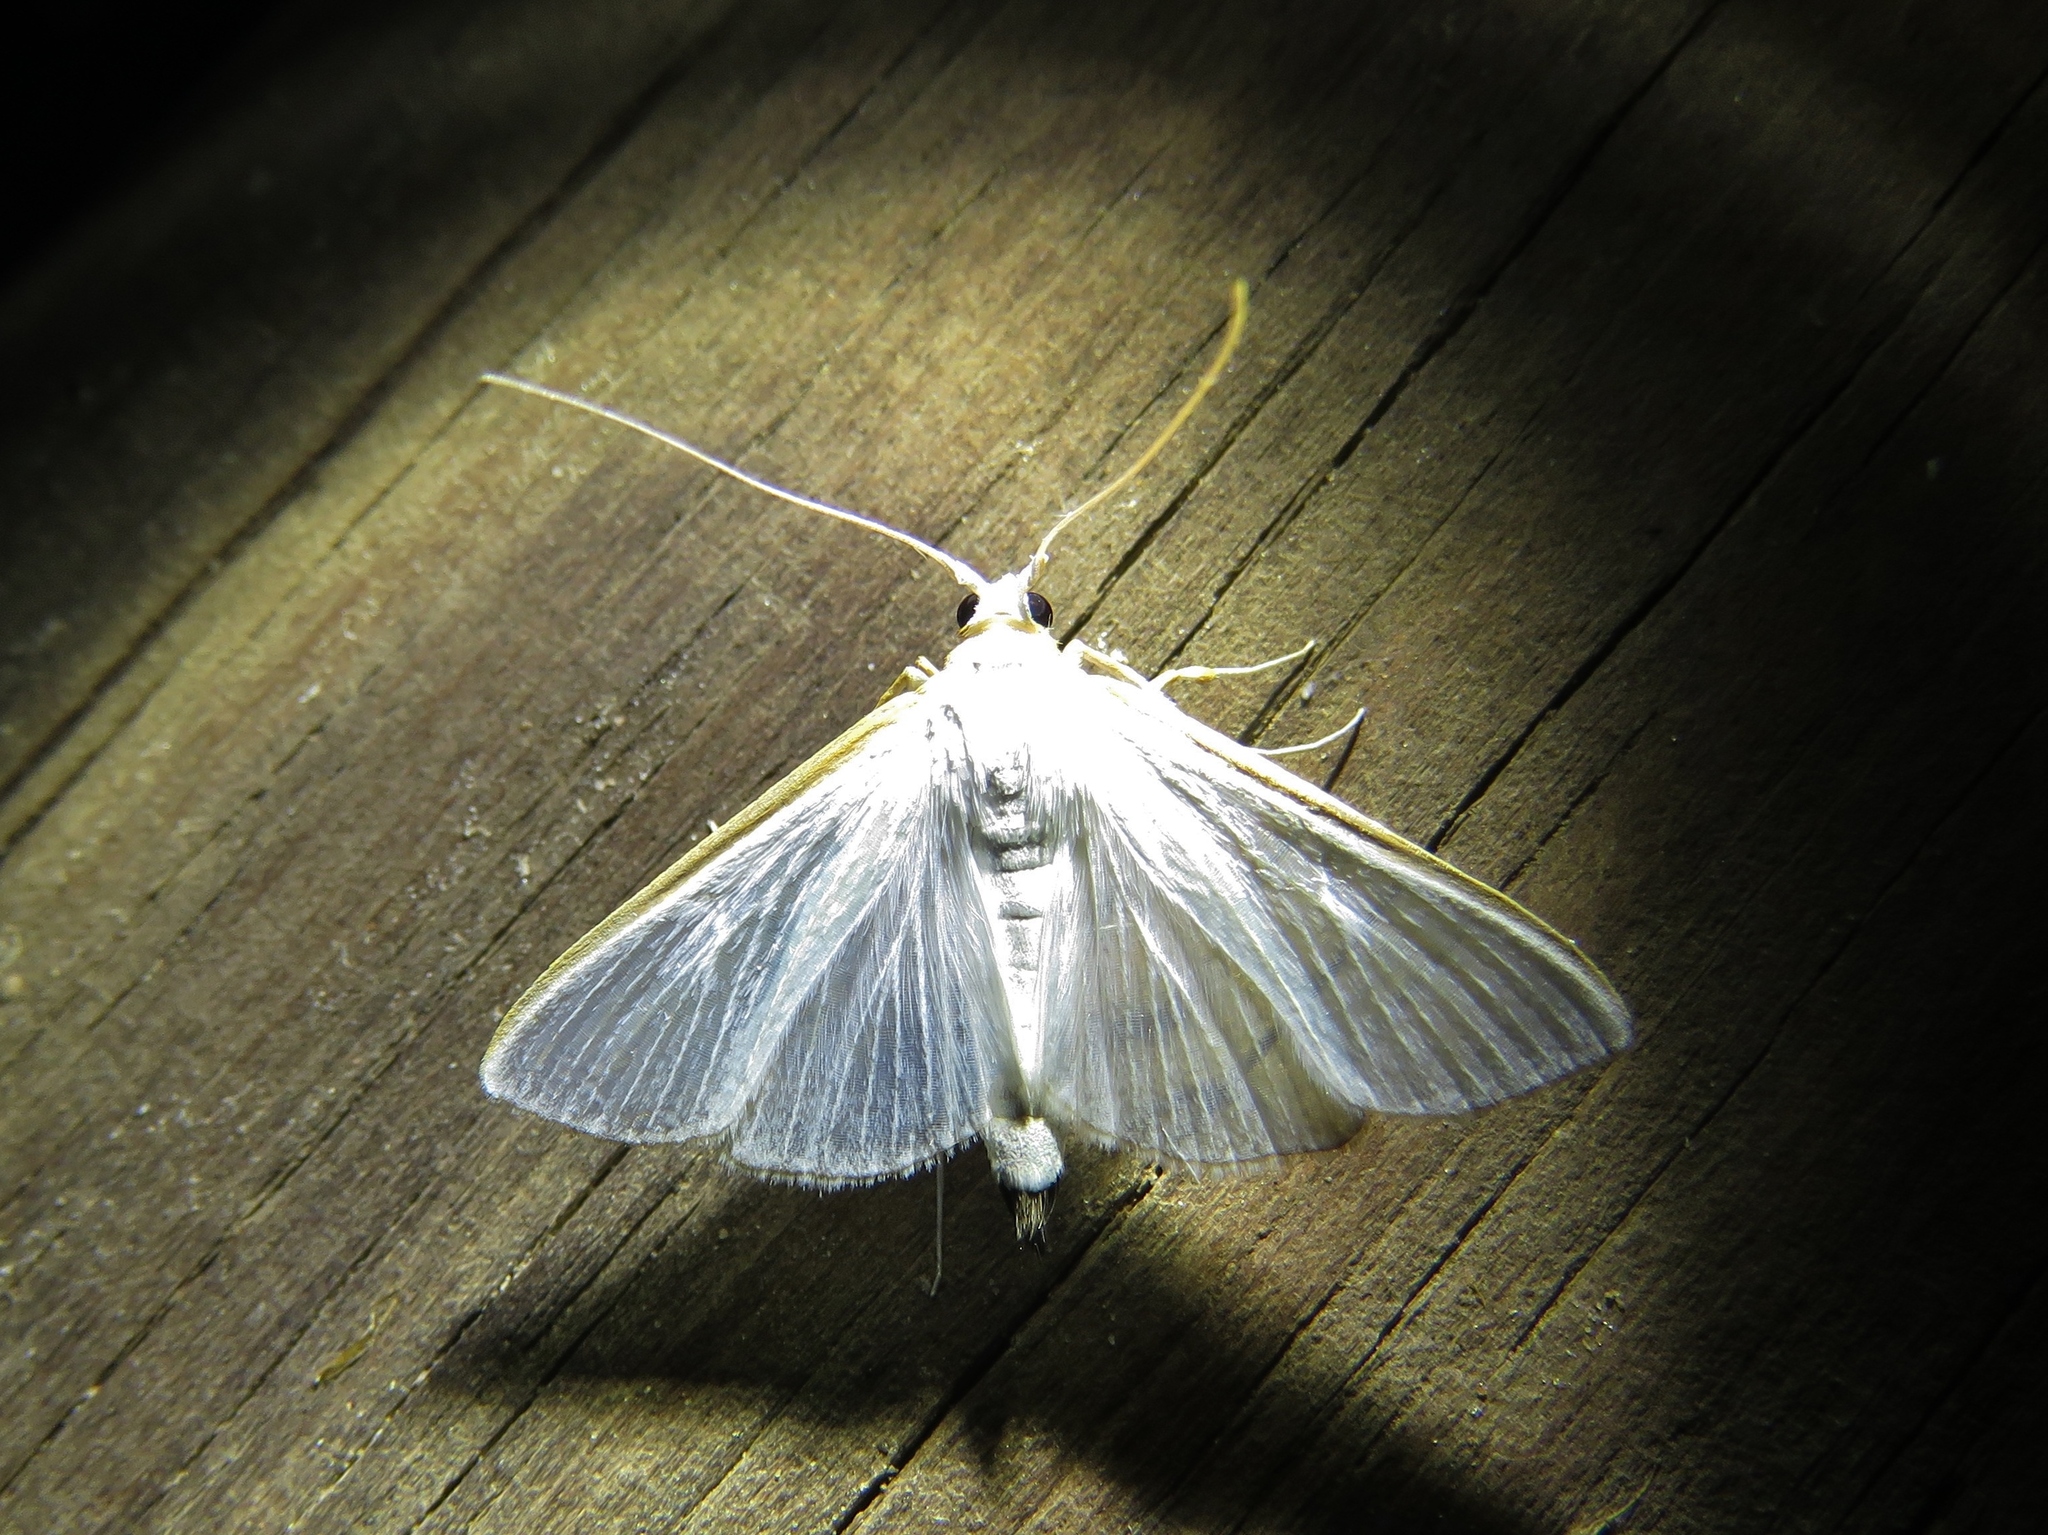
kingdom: Animalia
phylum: Arthropoda
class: Insecta
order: Lepidoptera
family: Crambidae
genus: Diaphania
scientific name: Diaphania costata
